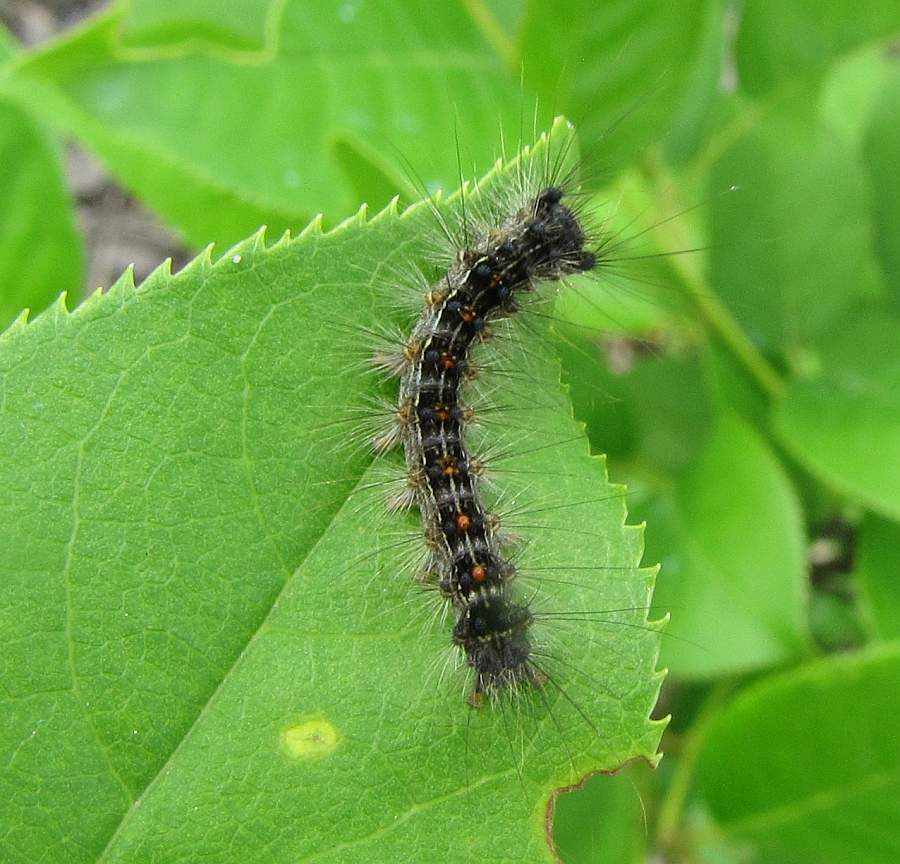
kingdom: Animalia
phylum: Arthropoda
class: Insecta
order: Lepidoptera
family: Erebidae
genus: Lymantria
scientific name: Lymantria dispar
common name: Gypsy moth
